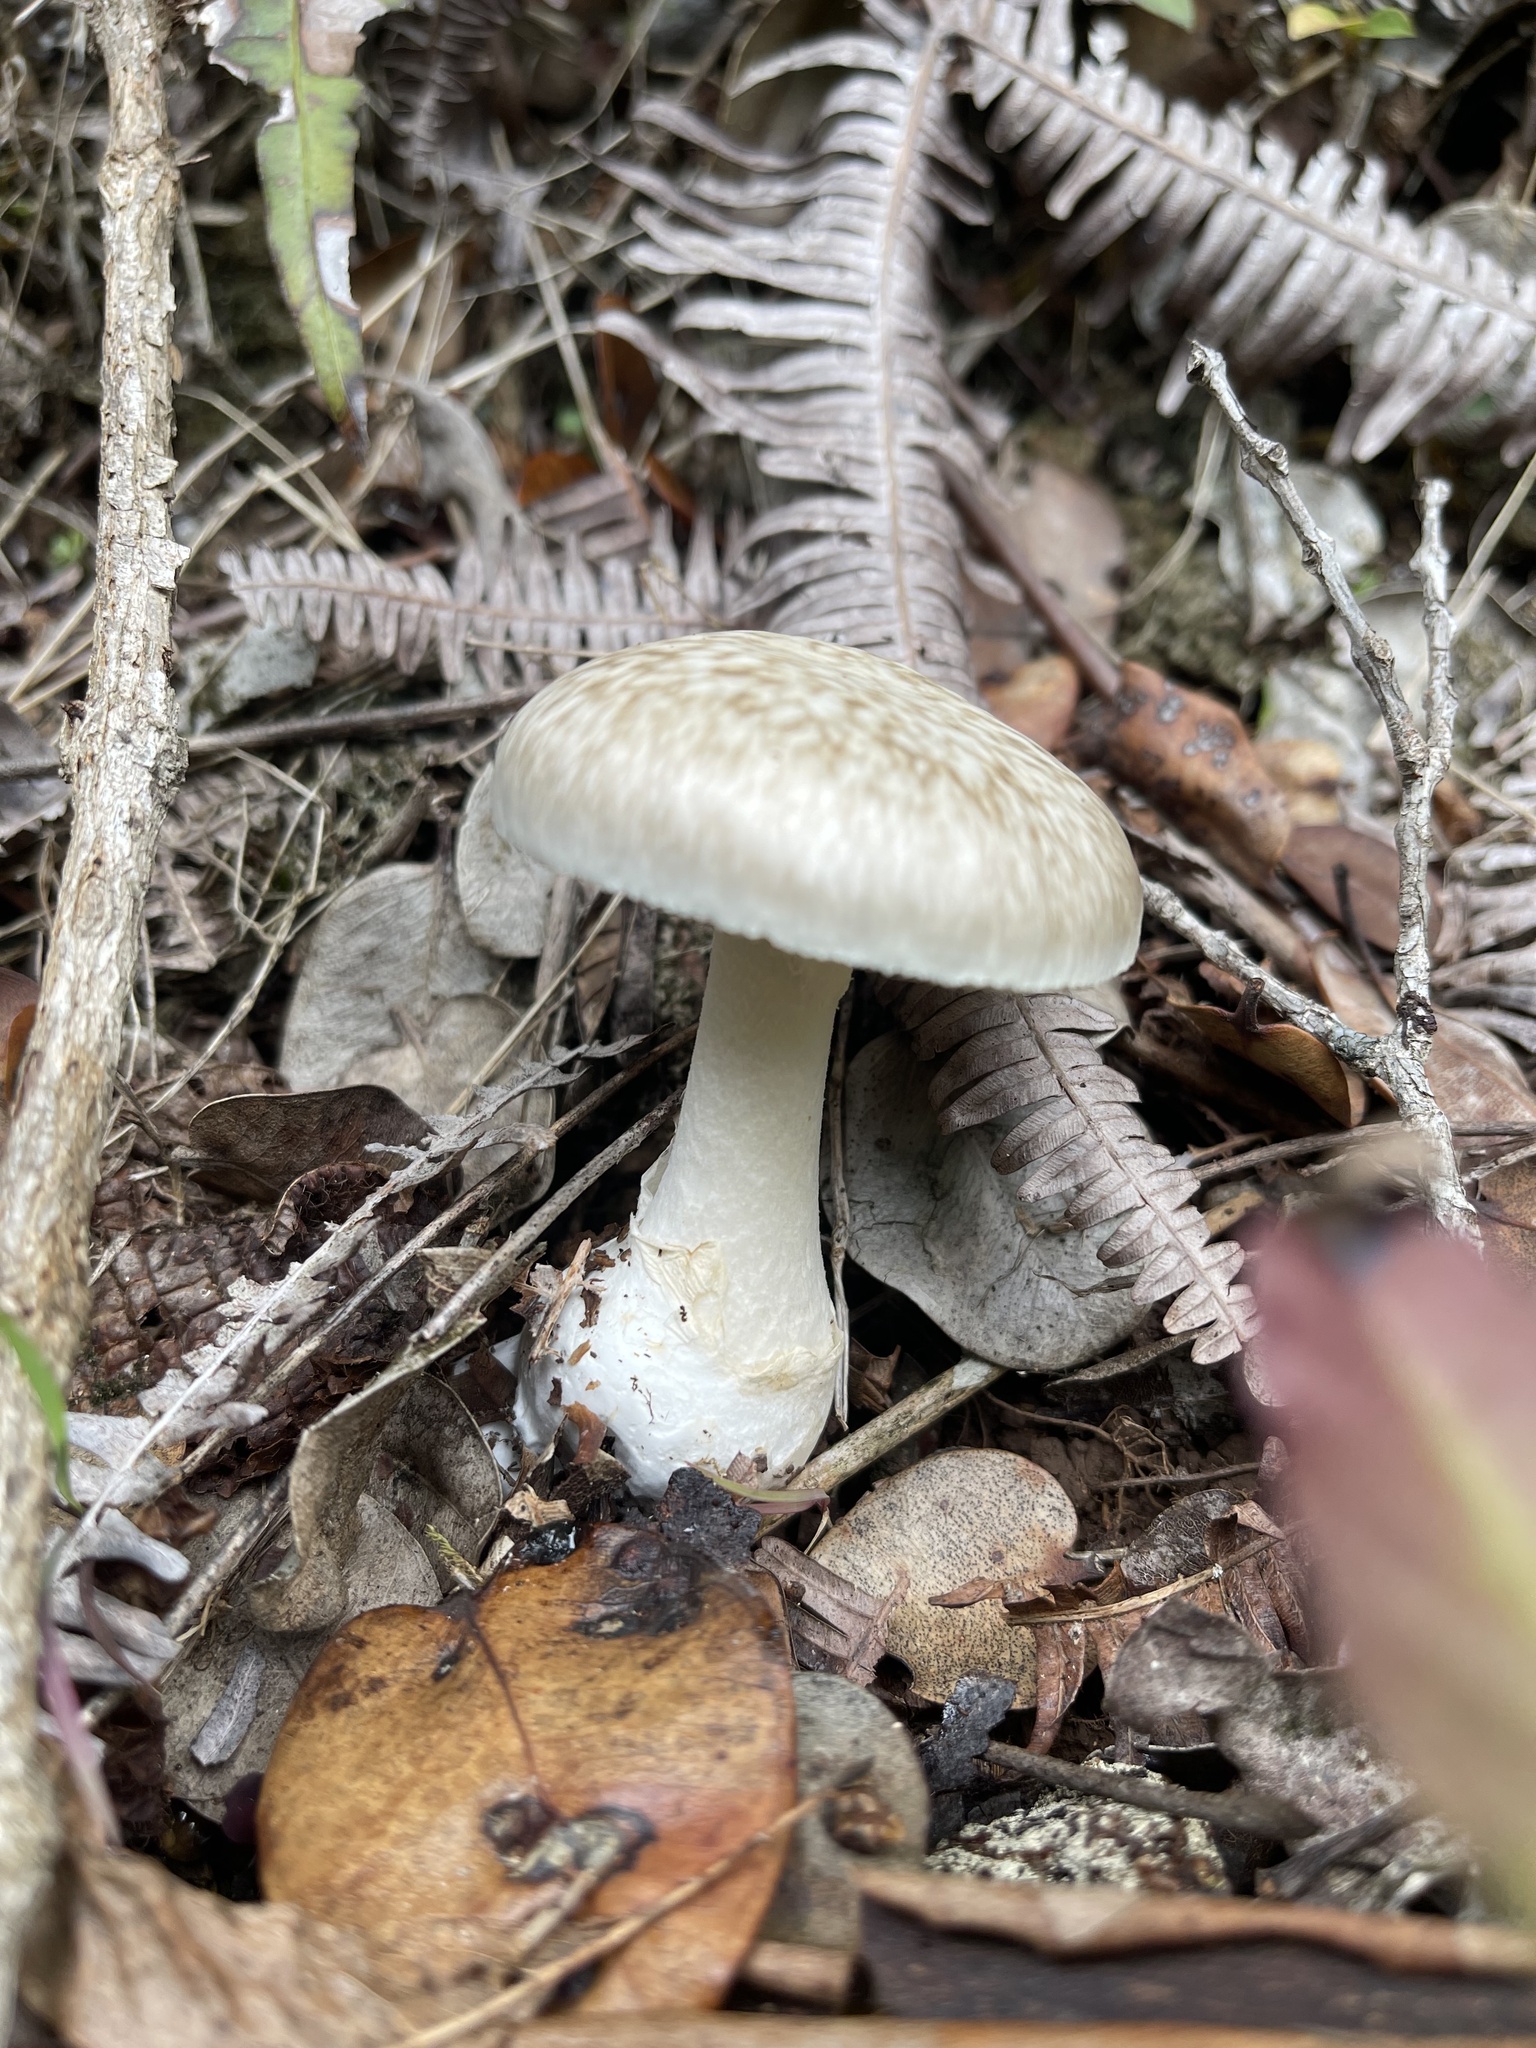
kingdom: Fungi
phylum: Basidiomycota
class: Agaricomycetes
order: Agaricales
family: Amanitaceae
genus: Amanita
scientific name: Amanita marmorata
